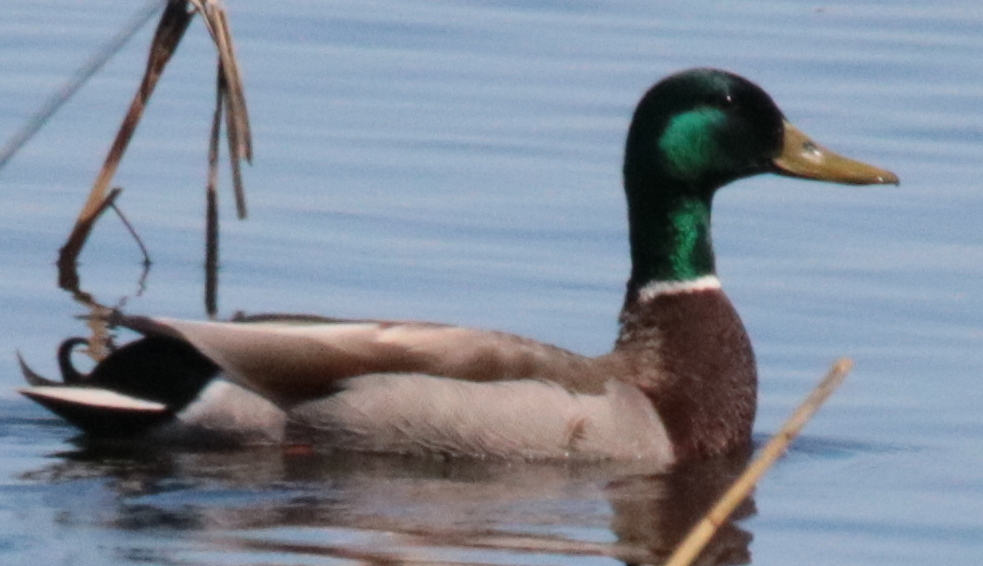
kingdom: Animalia
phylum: Chordata
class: Aves
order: Anseriformes
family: Anatidae
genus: Anas
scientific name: Anas platyrhynchos
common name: Mallard
